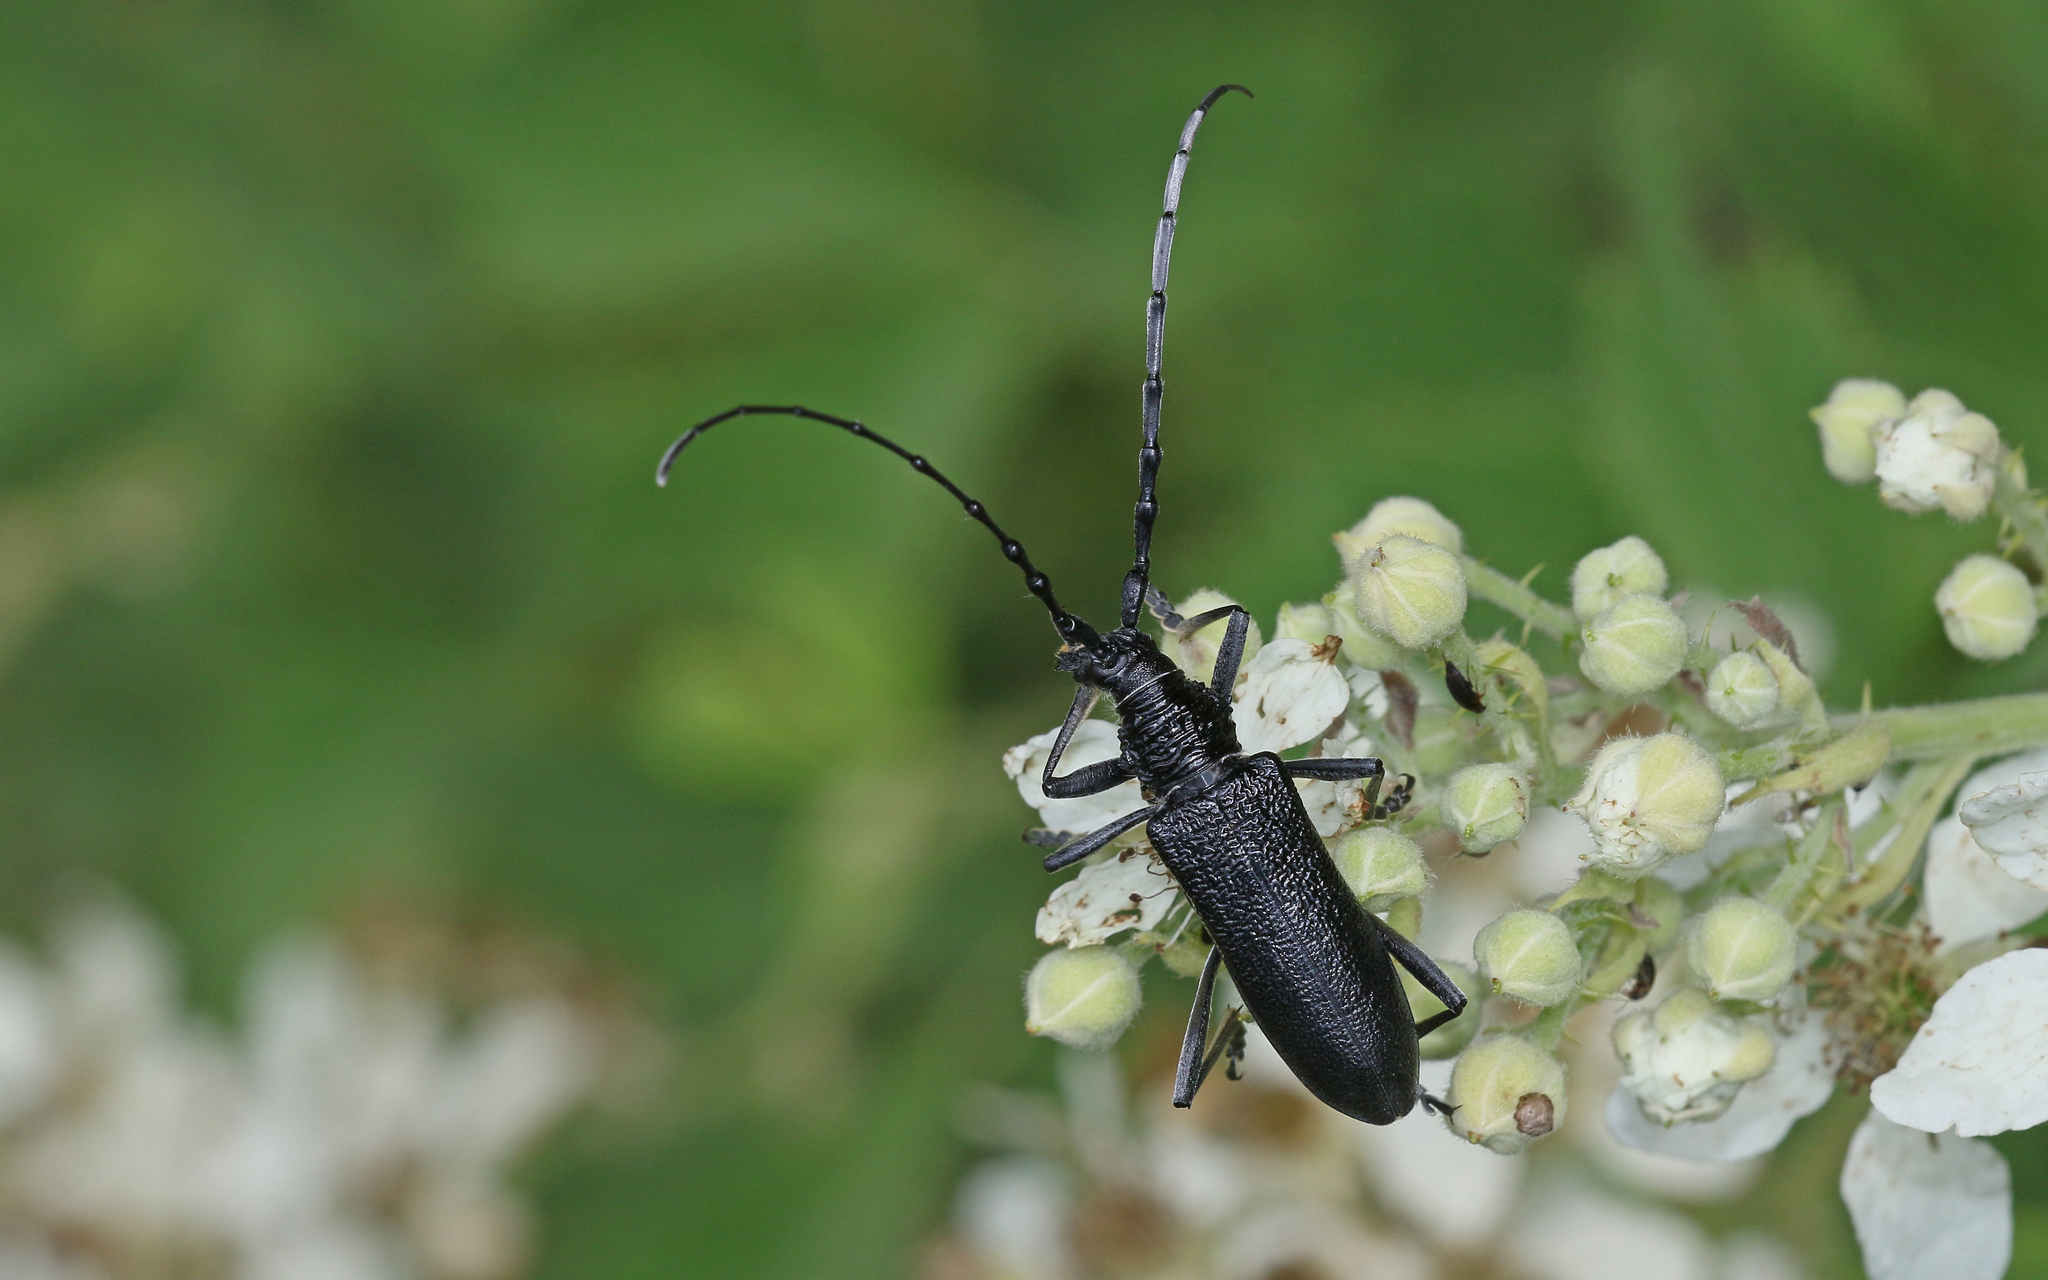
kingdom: Animalia
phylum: Arthropoda
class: Insecta
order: Coleoptera
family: Cerambycidae
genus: Cerambyx
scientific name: Cerambyx scopolii
